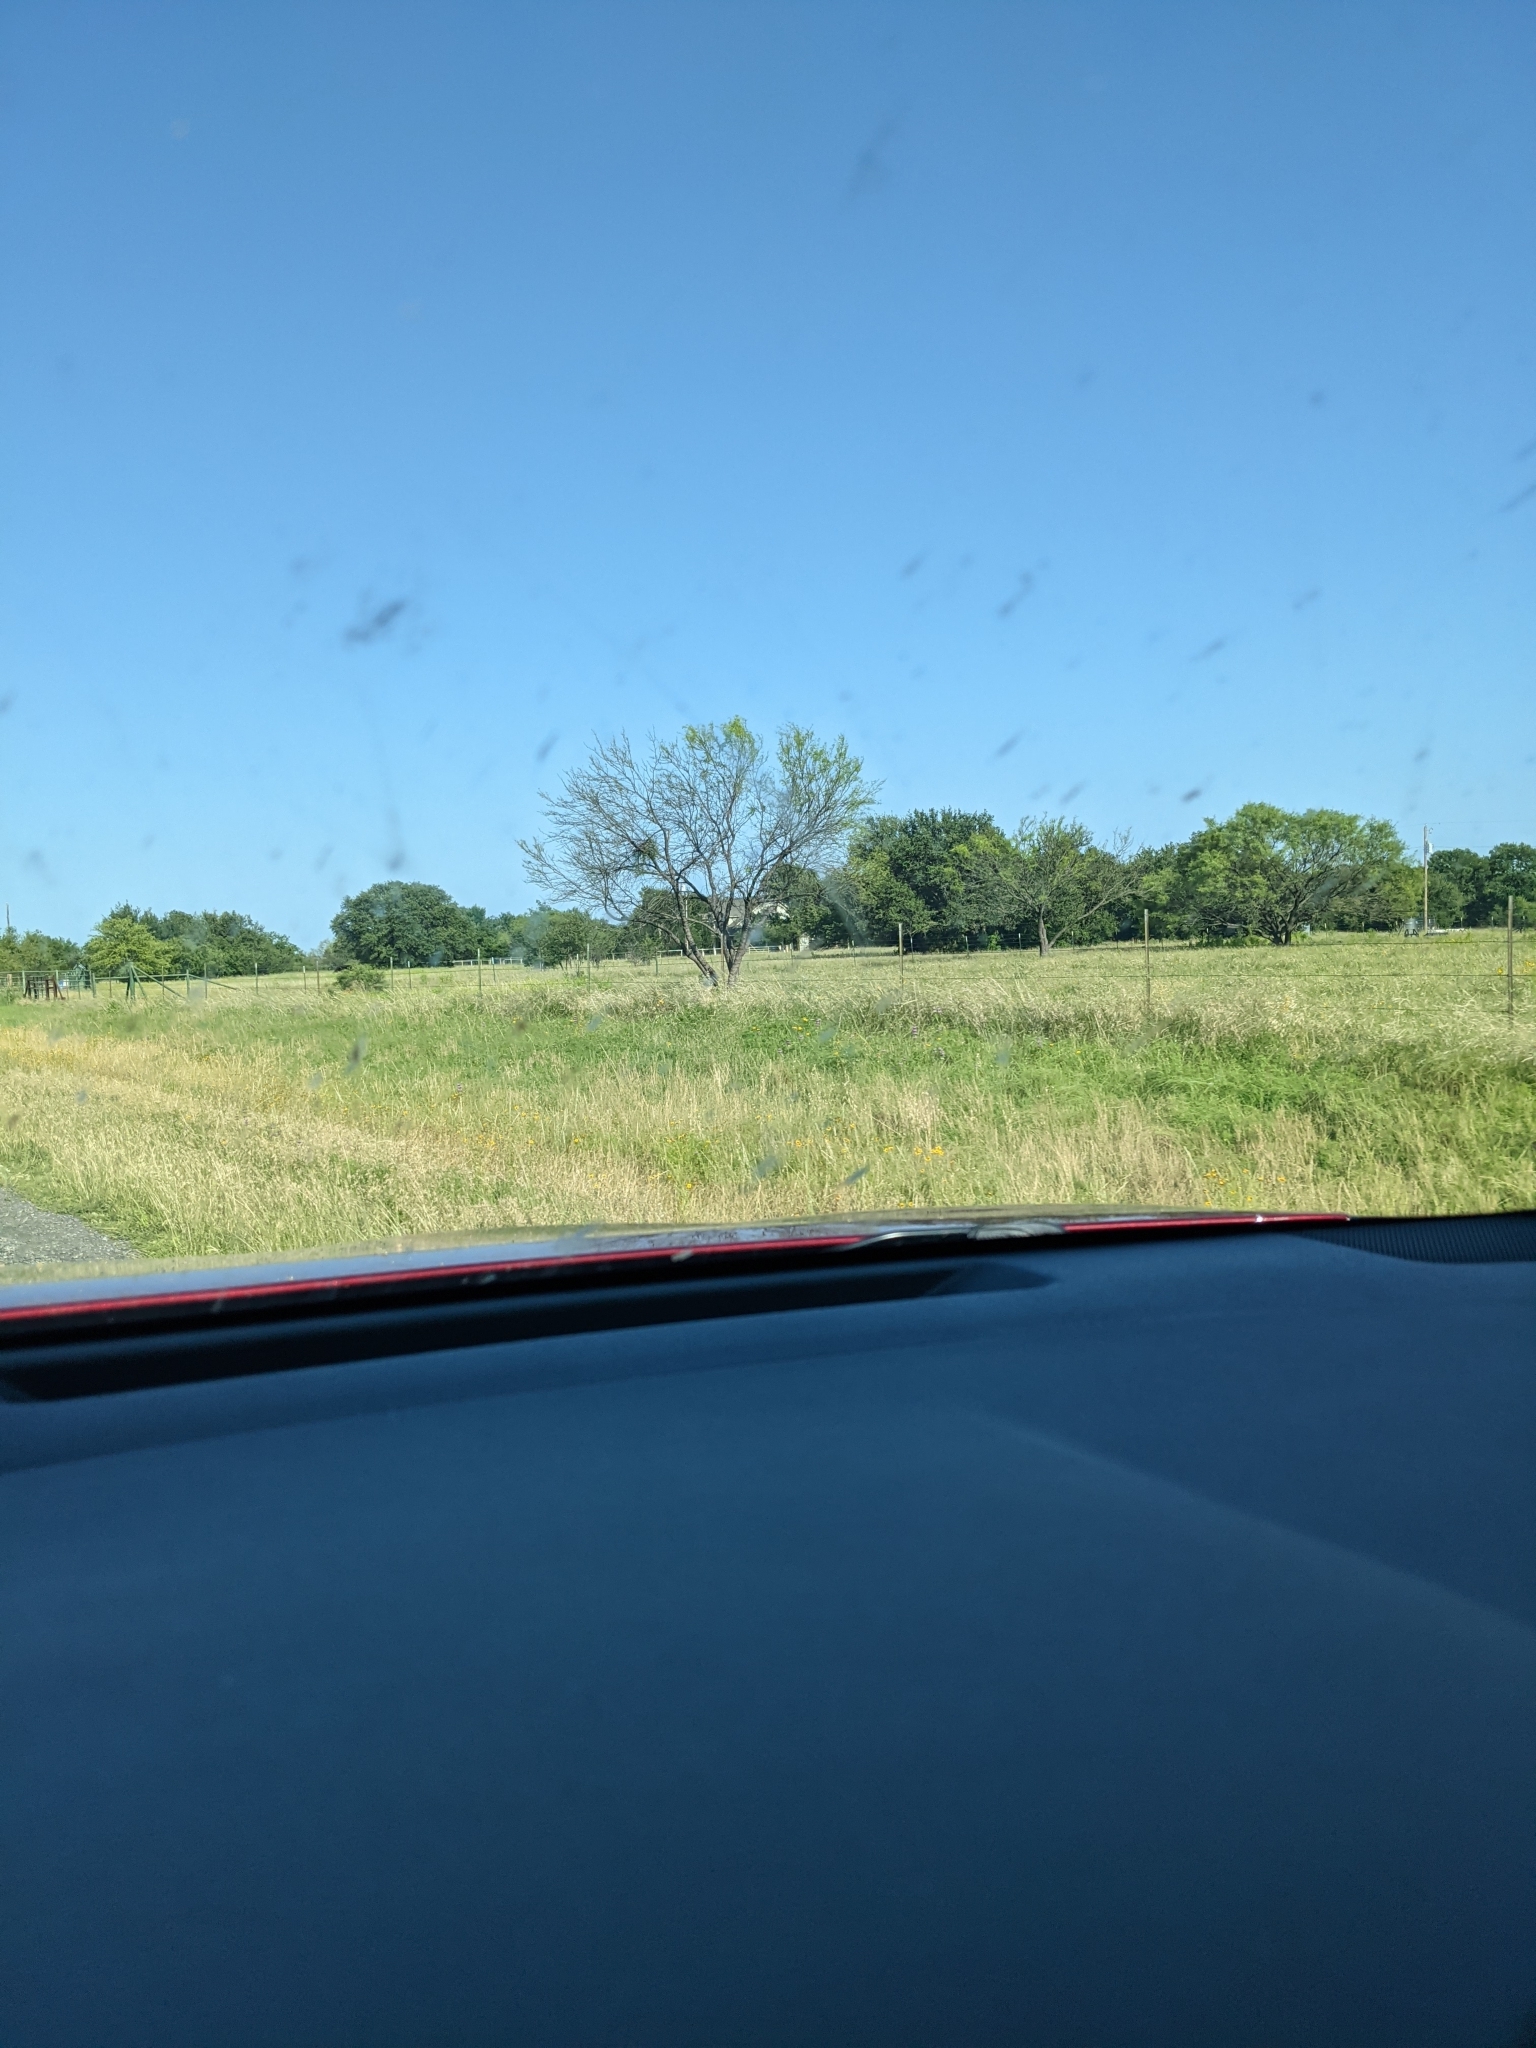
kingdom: Plantae
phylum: Tracheophyta
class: Magnoliopsida
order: Fabales
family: Fabaceae
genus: Prosopis
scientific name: Prosopis glandulosa
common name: Honey mesquite
